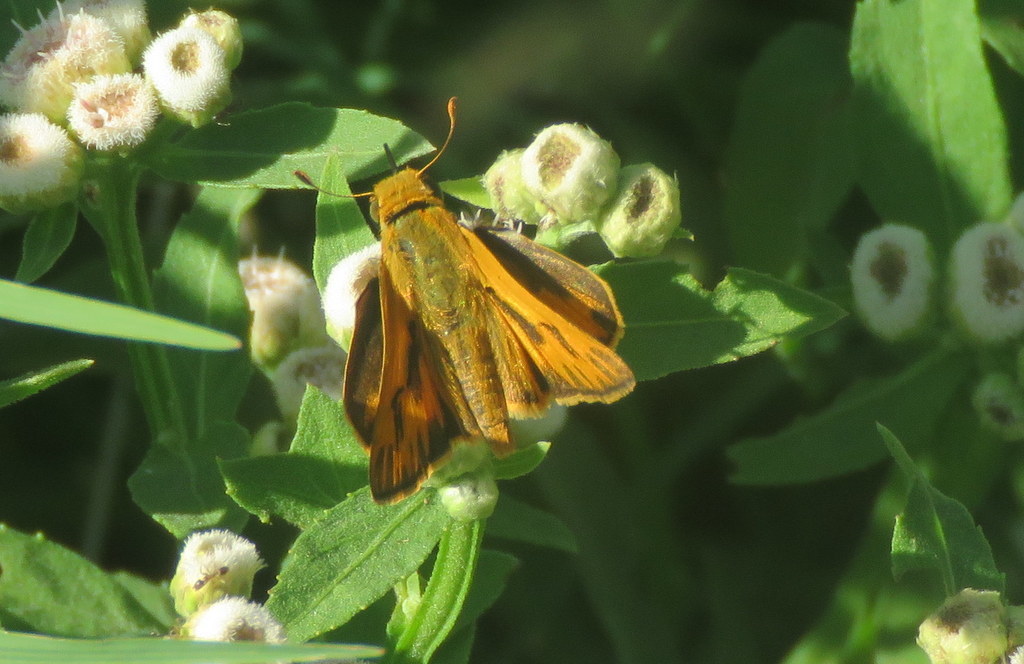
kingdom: Animalia
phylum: Arthropoda
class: Insecta
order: Lepidoptera
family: Hesperiidae
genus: Hylephila
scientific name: Hylephila phyleus
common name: Fiery skipper
